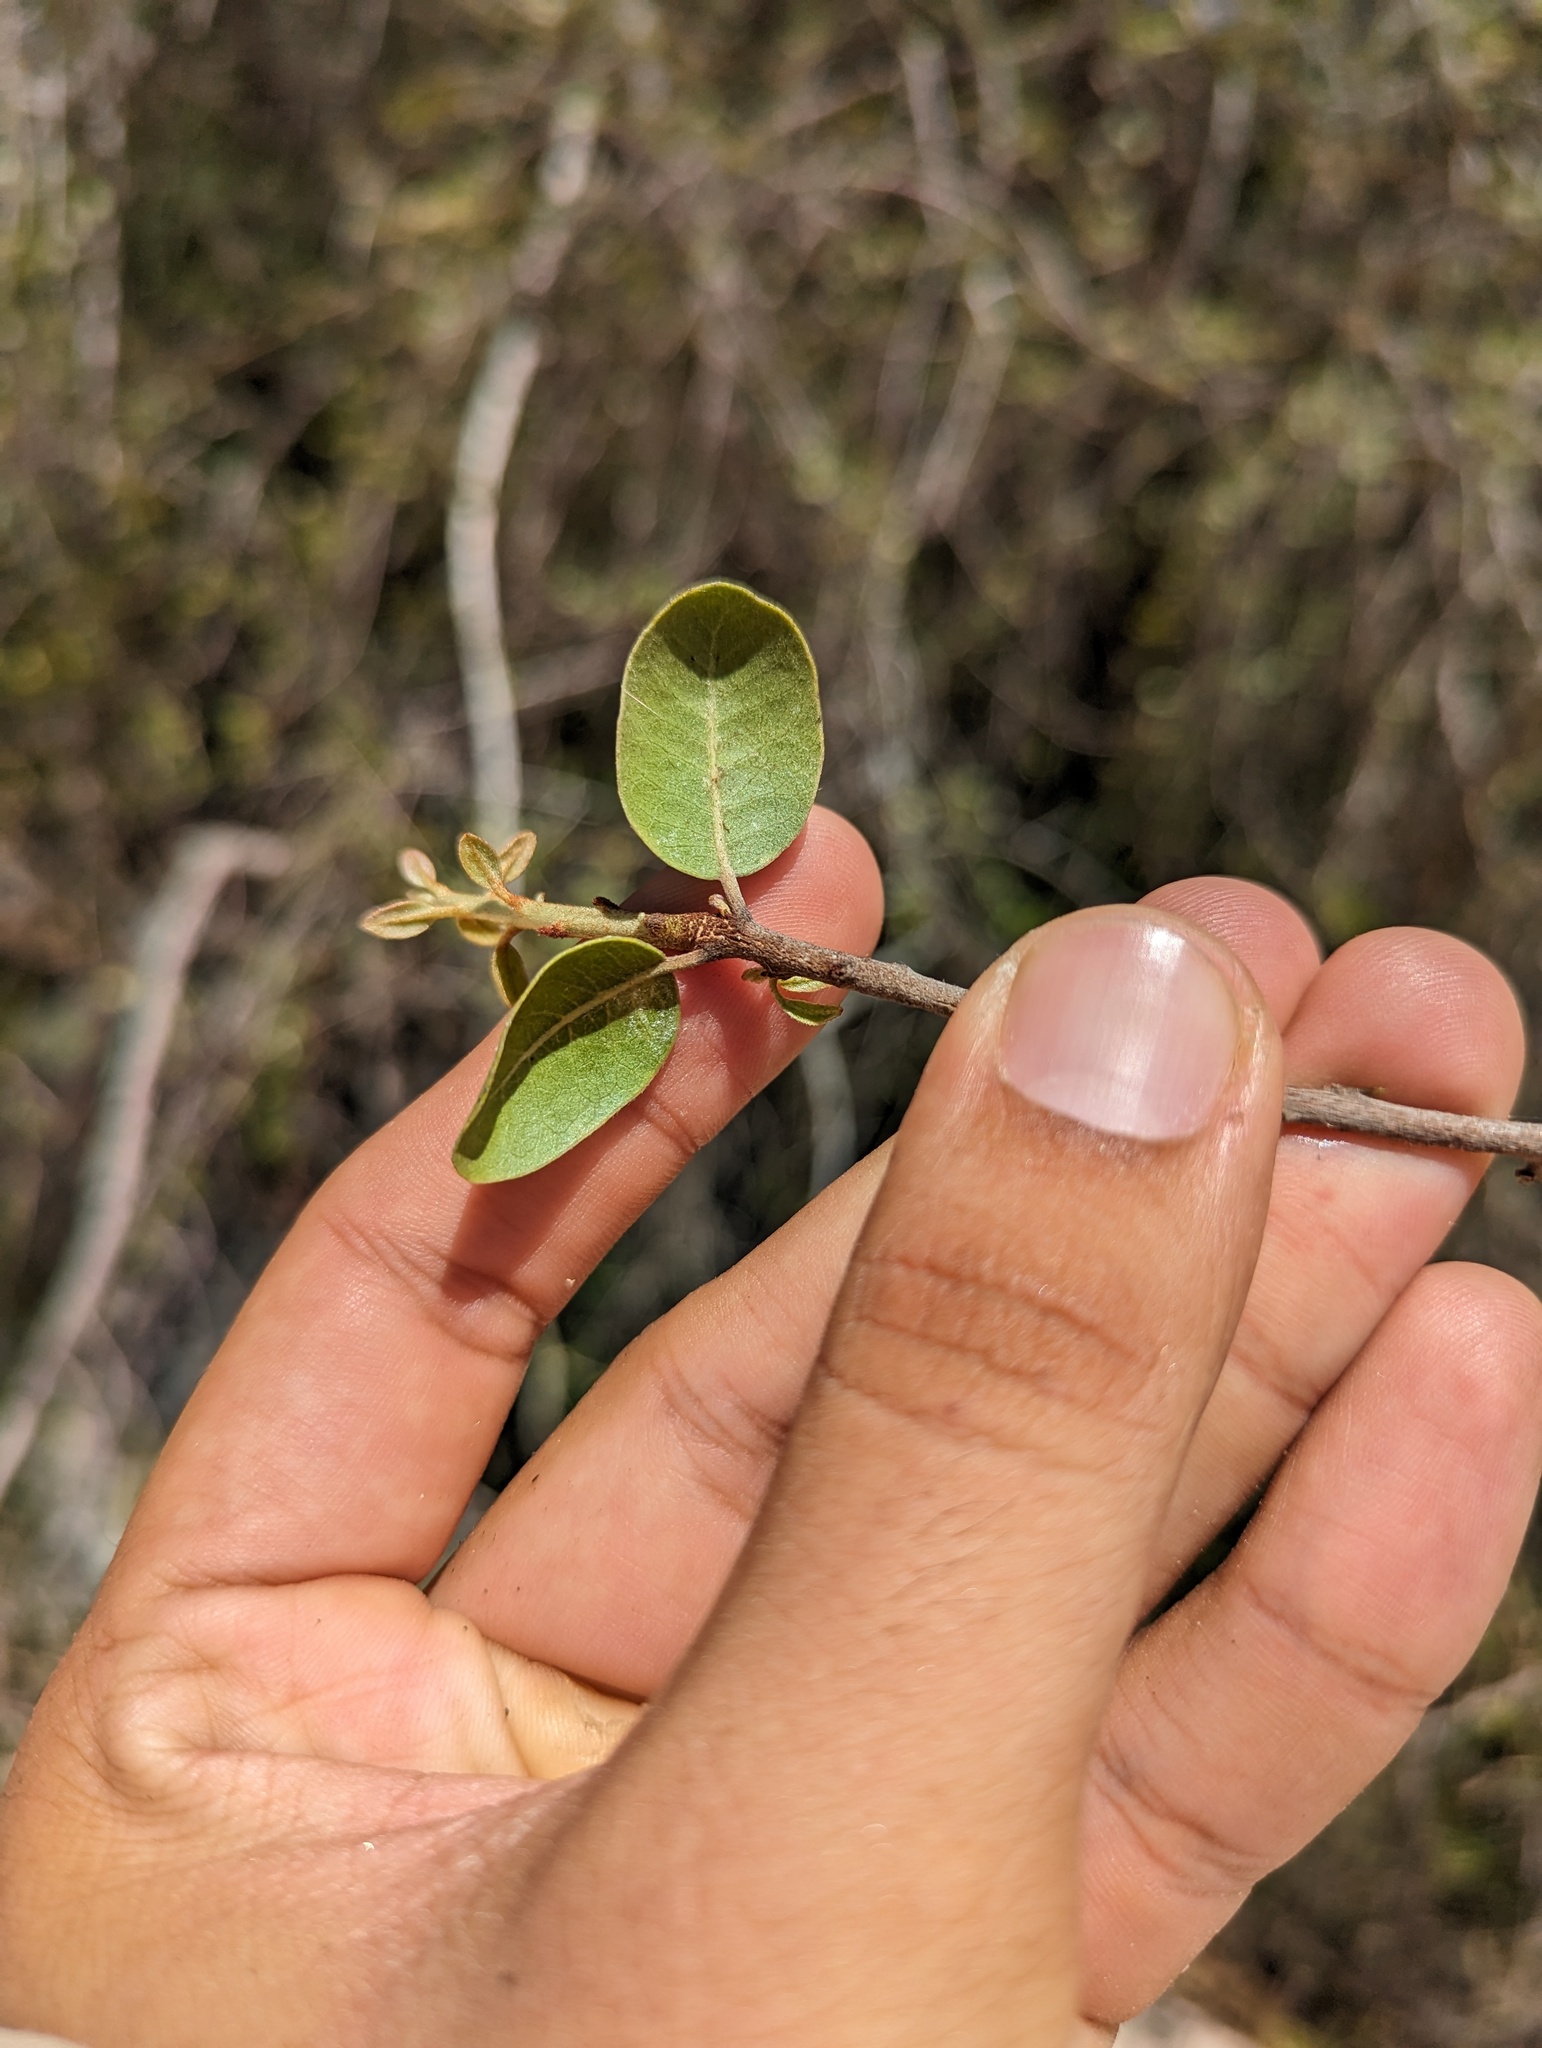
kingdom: Plantae
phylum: Tracheophyta
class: Magnoliopsida
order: Ericales
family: Sapotaceae
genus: Sideroxylon
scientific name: Sideroxylon peninsulare
